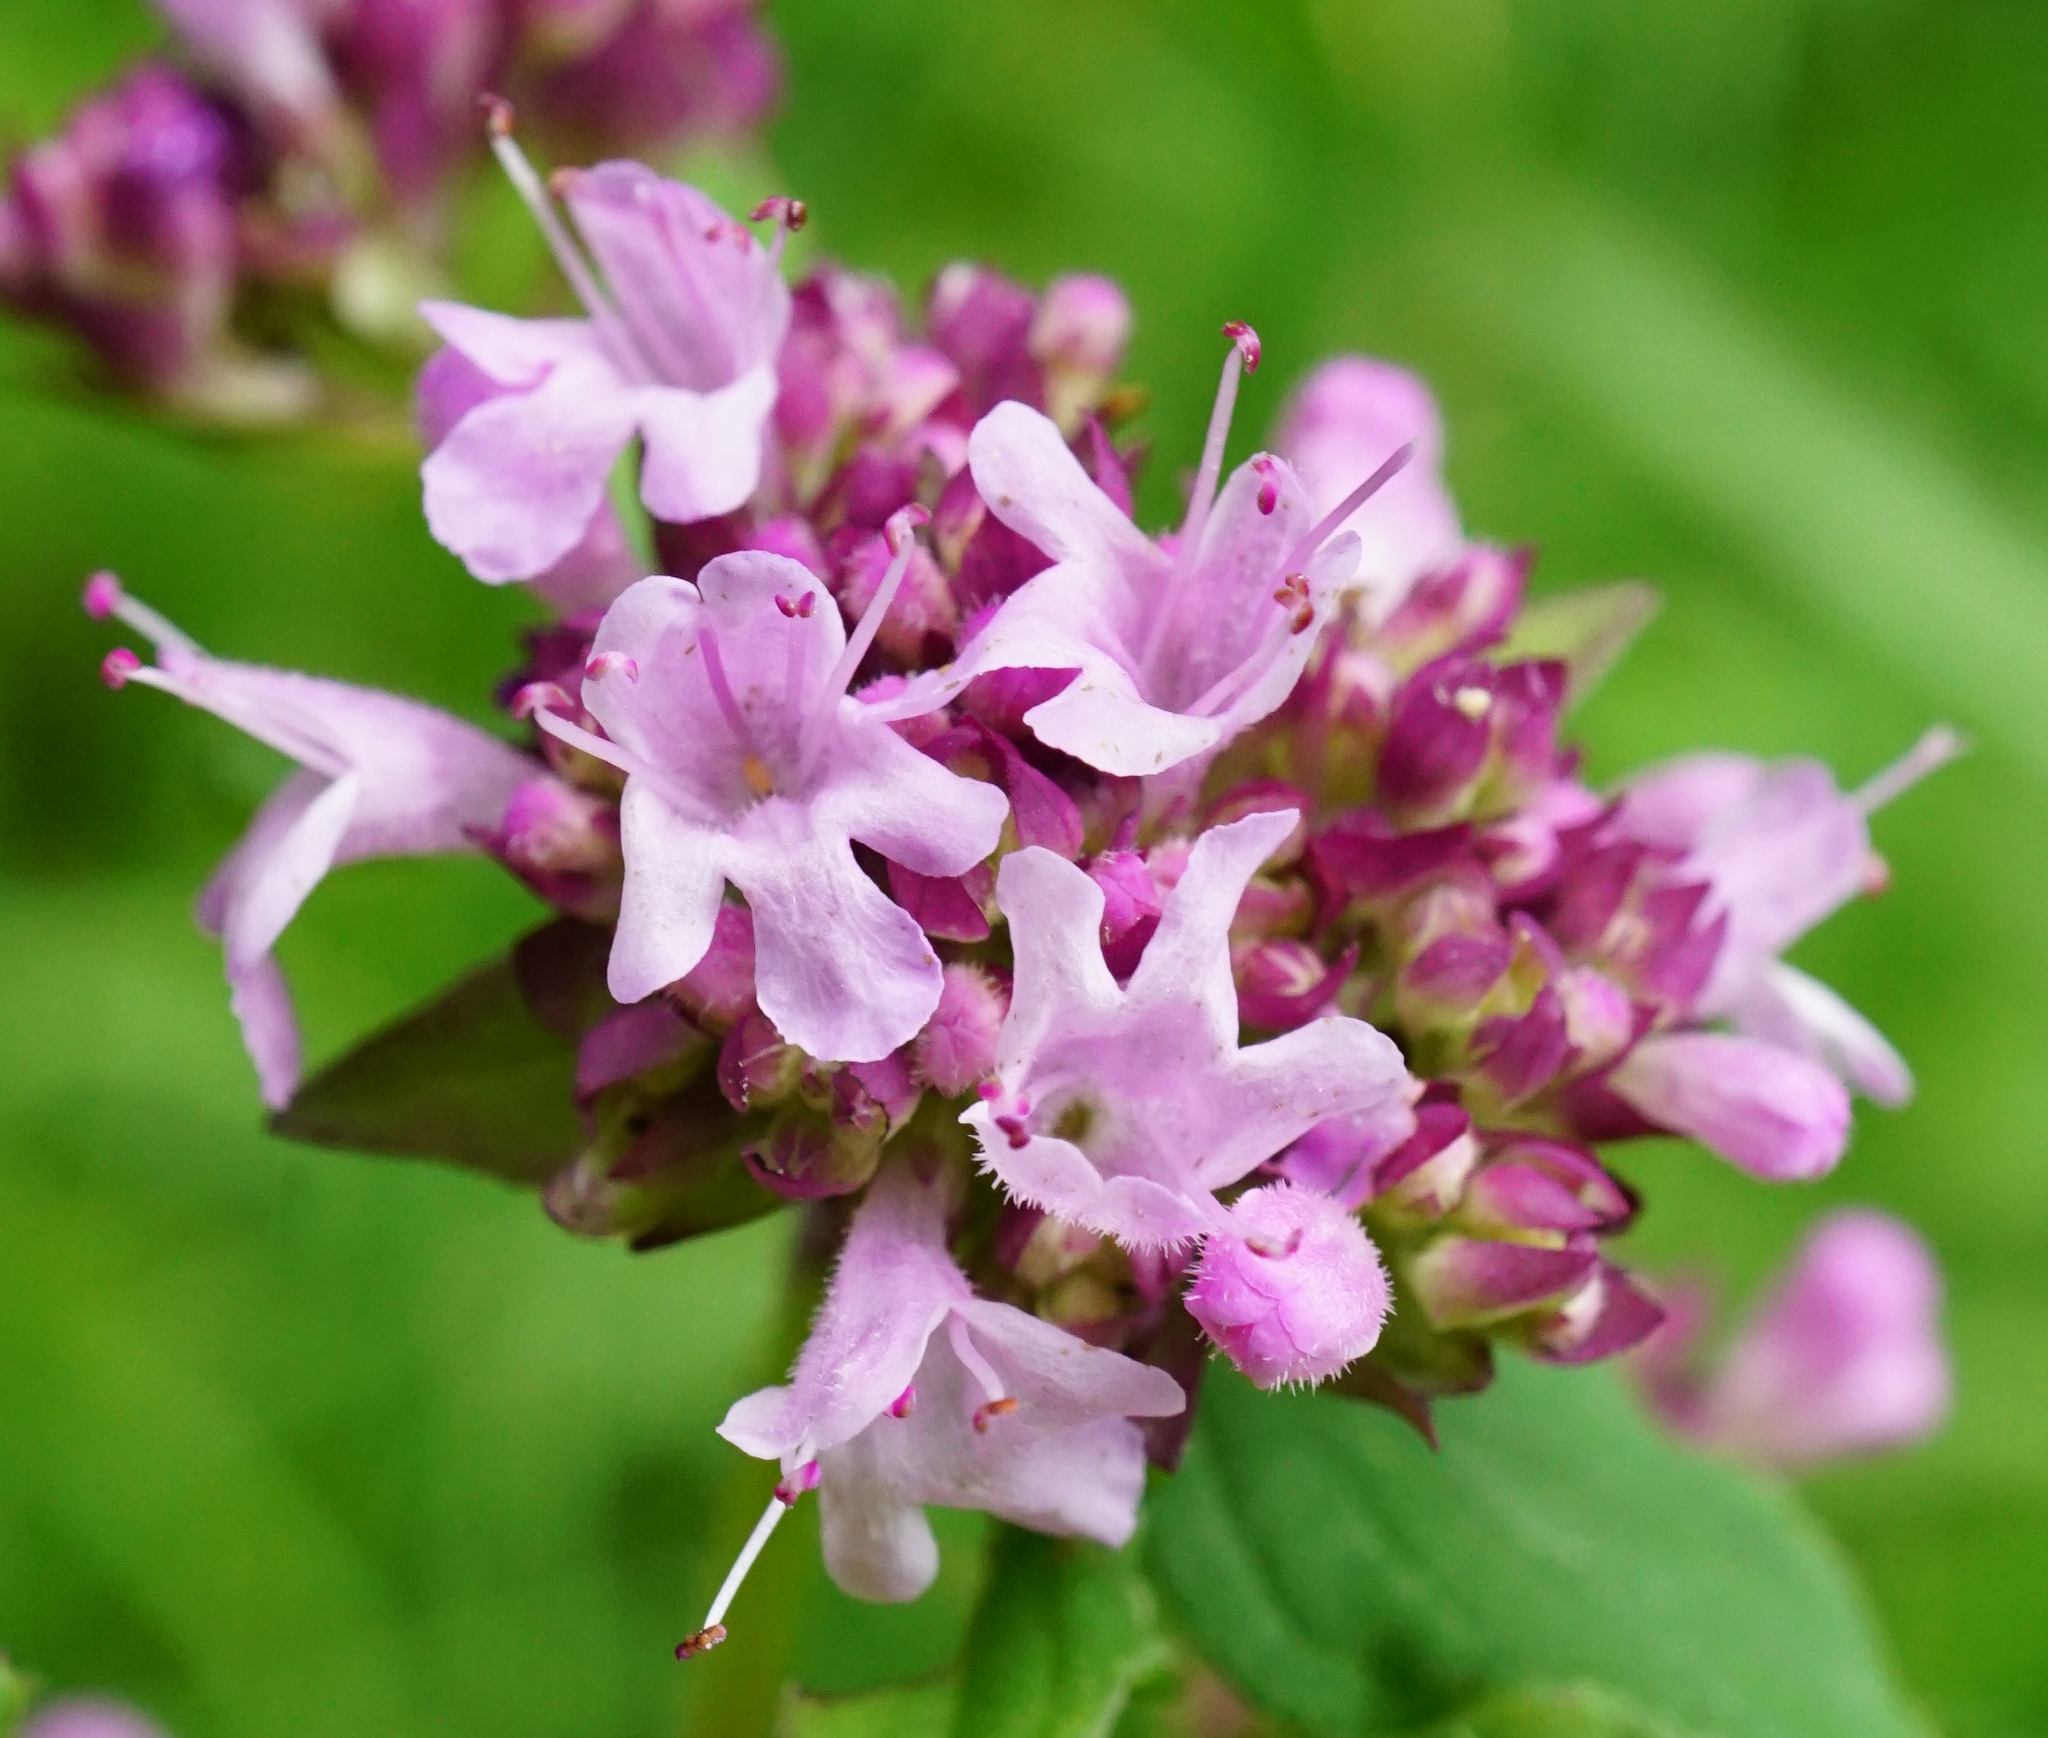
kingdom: Plantae
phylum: Tracheophyta
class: Magnoliopsida
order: Lamiales
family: Lamiaceae
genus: Origanum
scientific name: Origanum vulgare
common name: Wild marjoram
